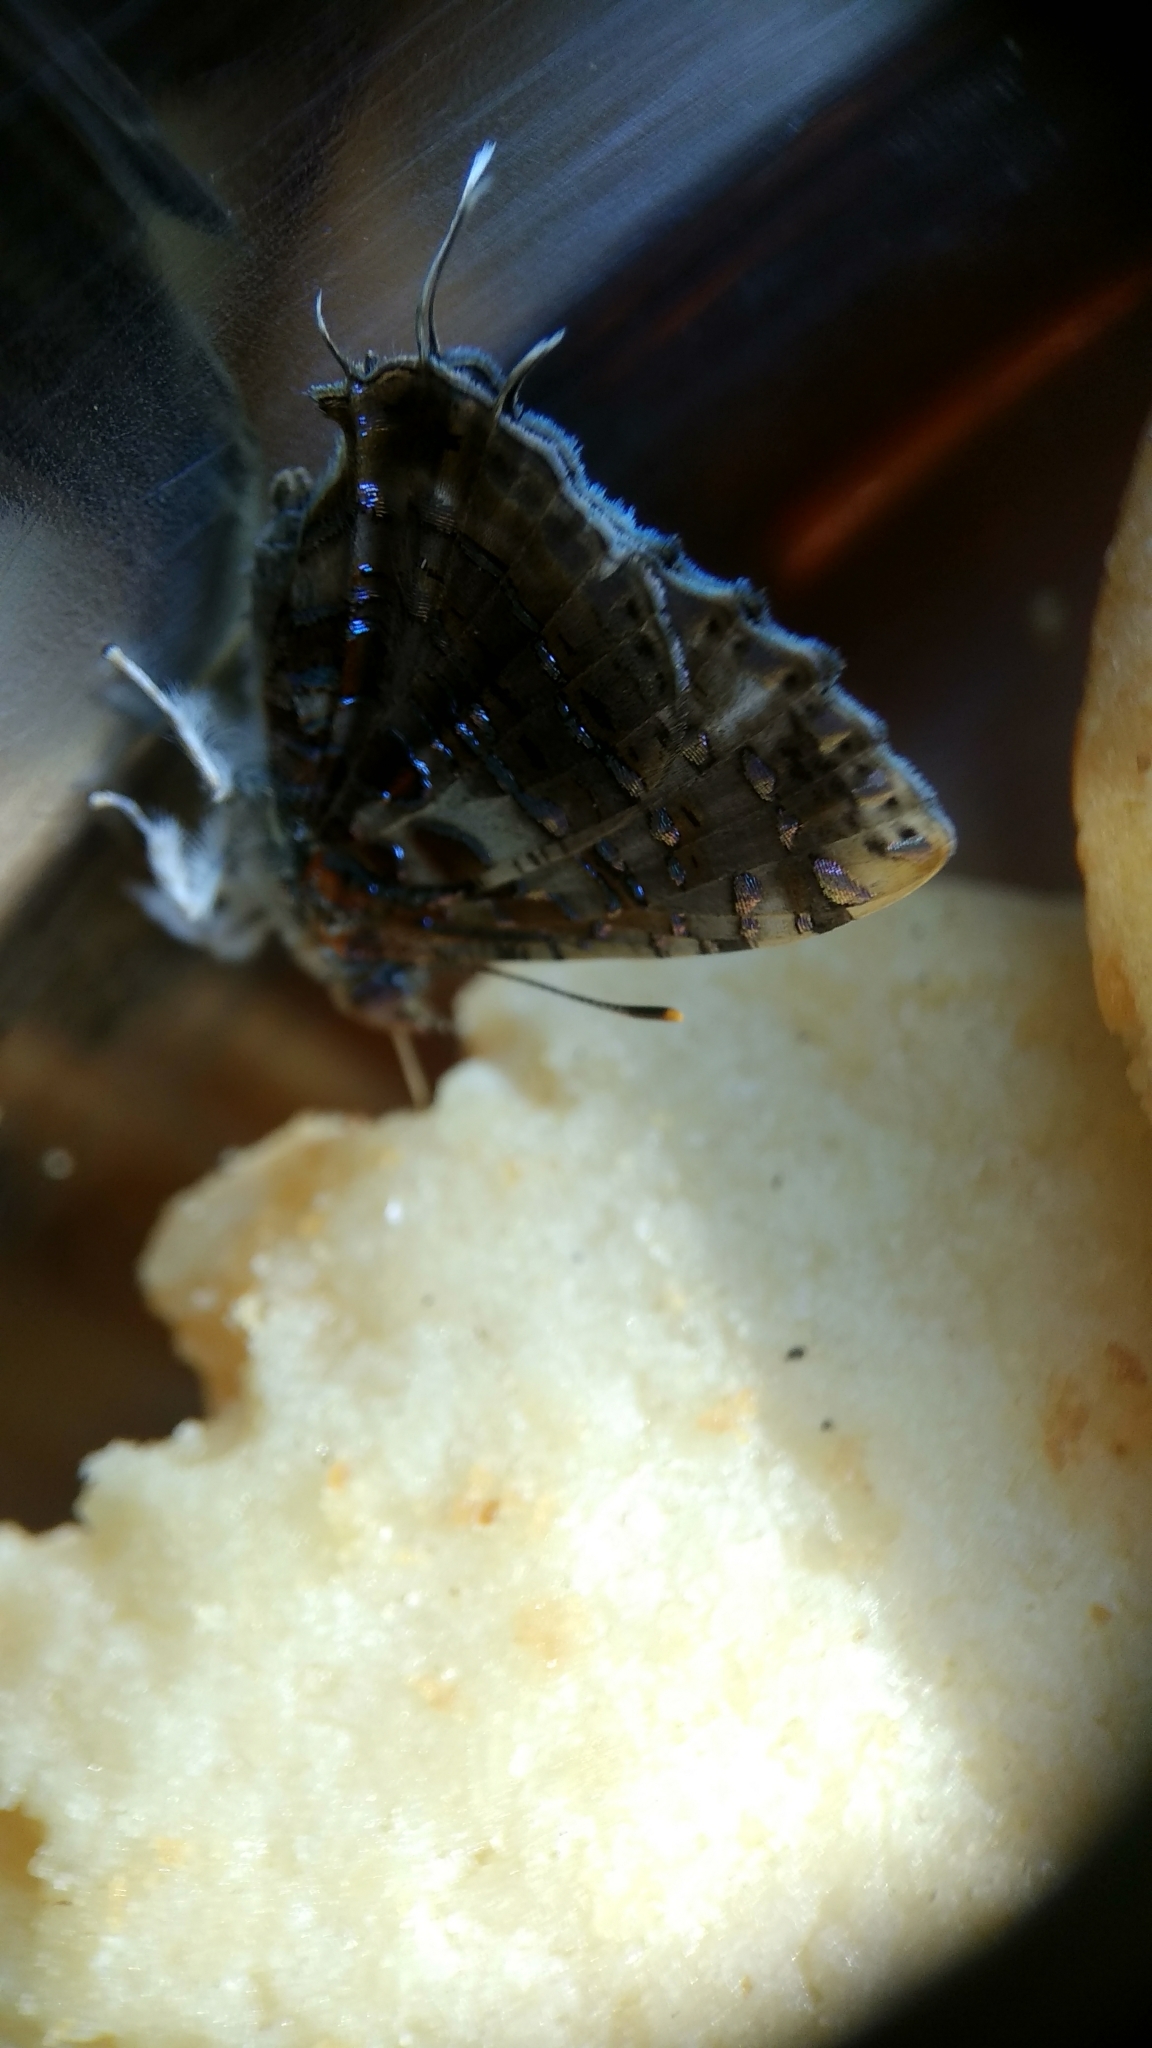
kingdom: Animalia
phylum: Arthropoda
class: Insecta
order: Lepidoptera
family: Lycaenidae
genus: Catapaecilma
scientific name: Catapaecilma major
